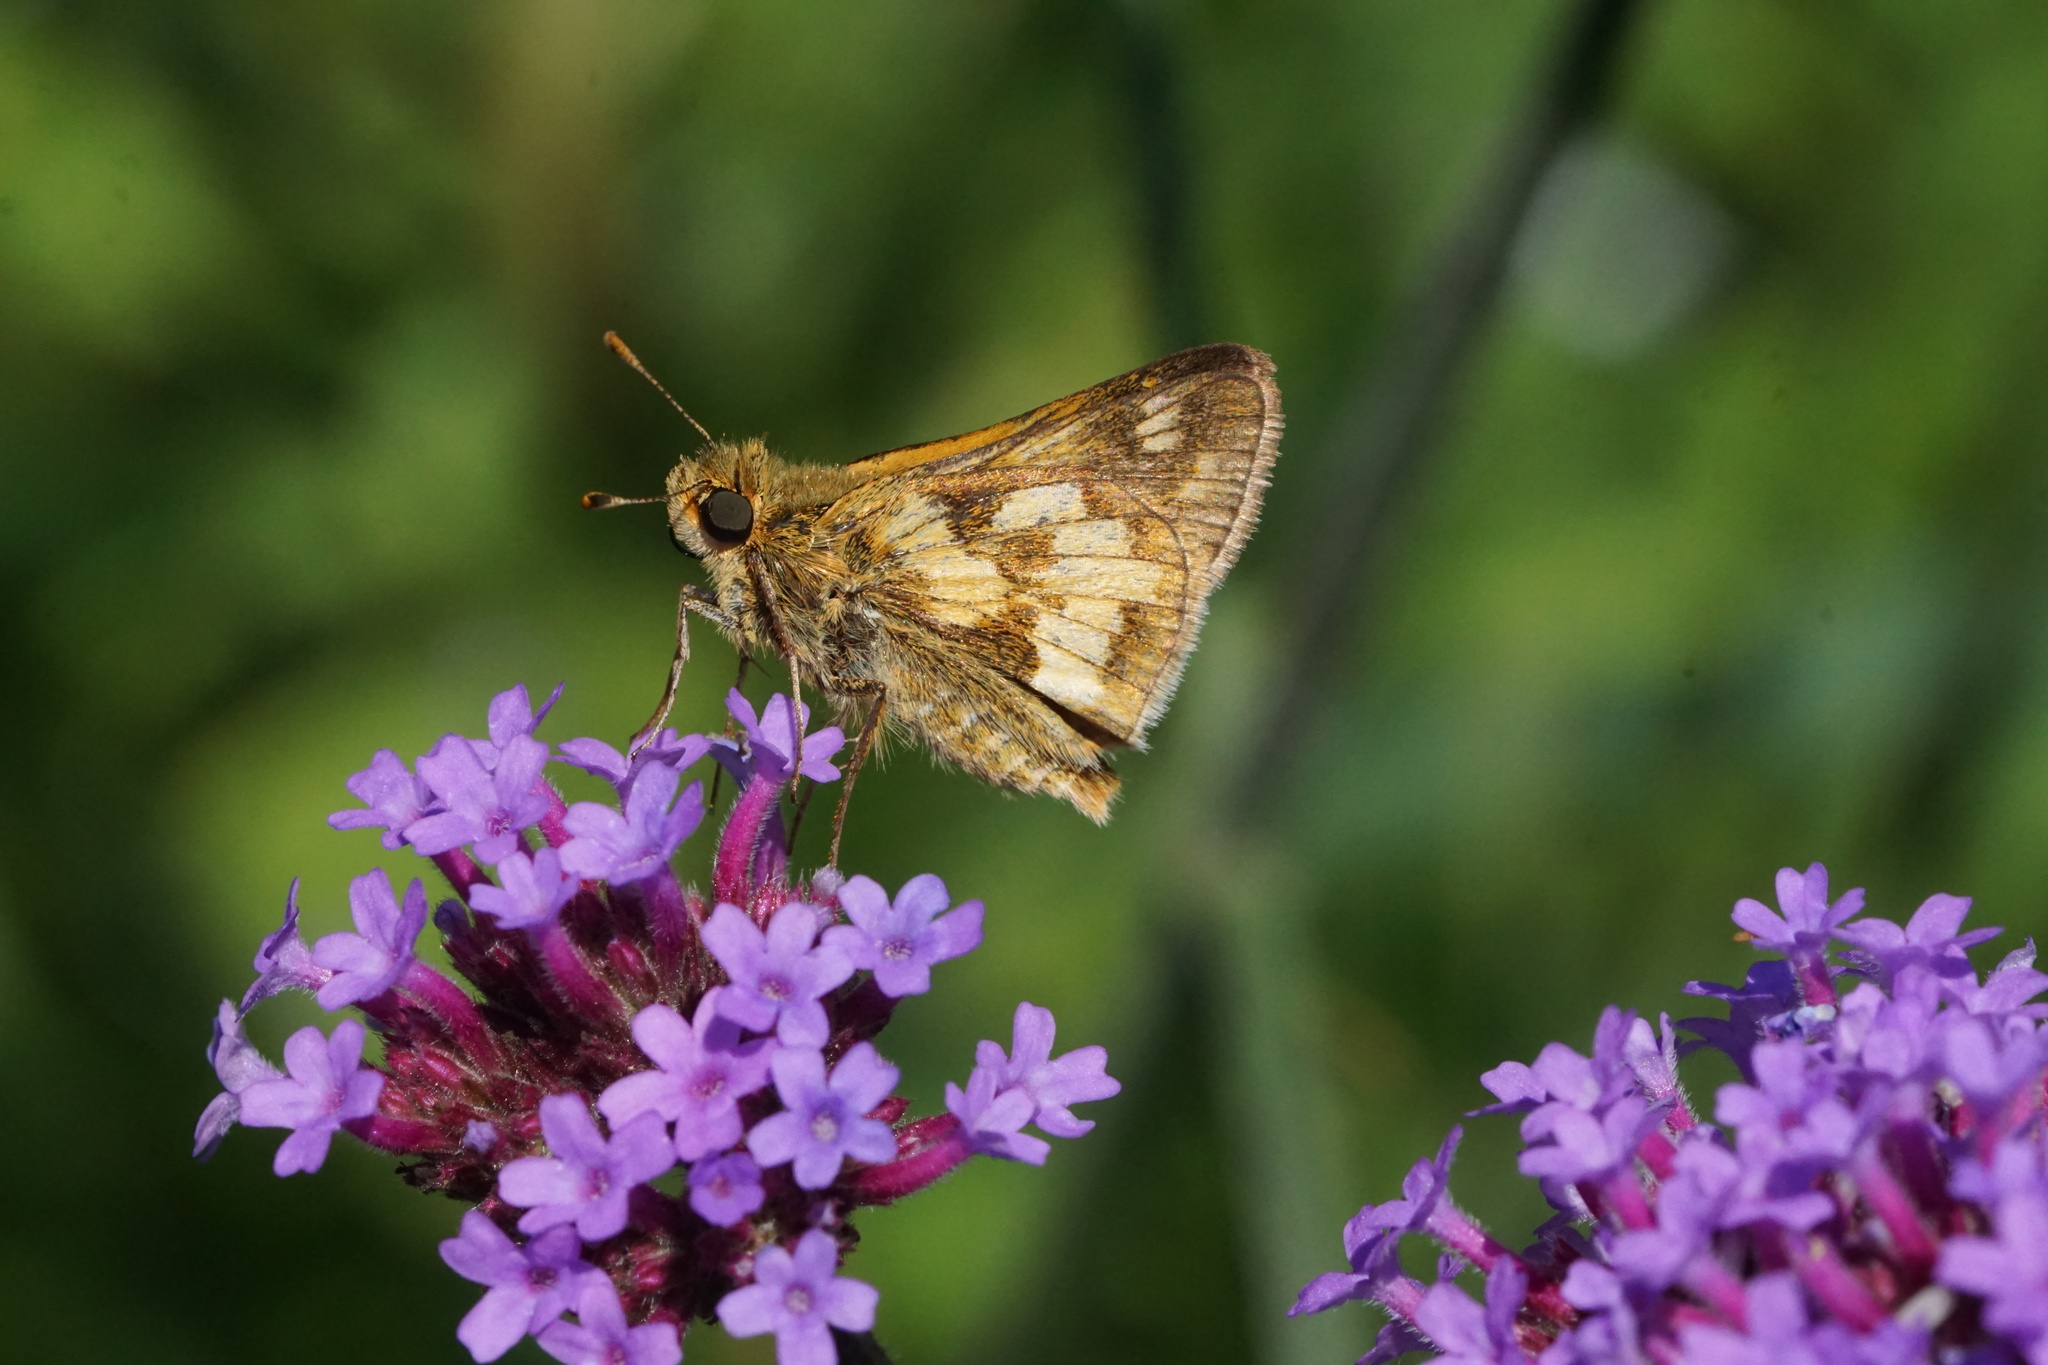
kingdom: Animalia
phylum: Arthropoda
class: Insecta
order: Lepidoptera
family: Hesperiidae
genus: Polites
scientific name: Polites coras
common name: Peck's skipper
